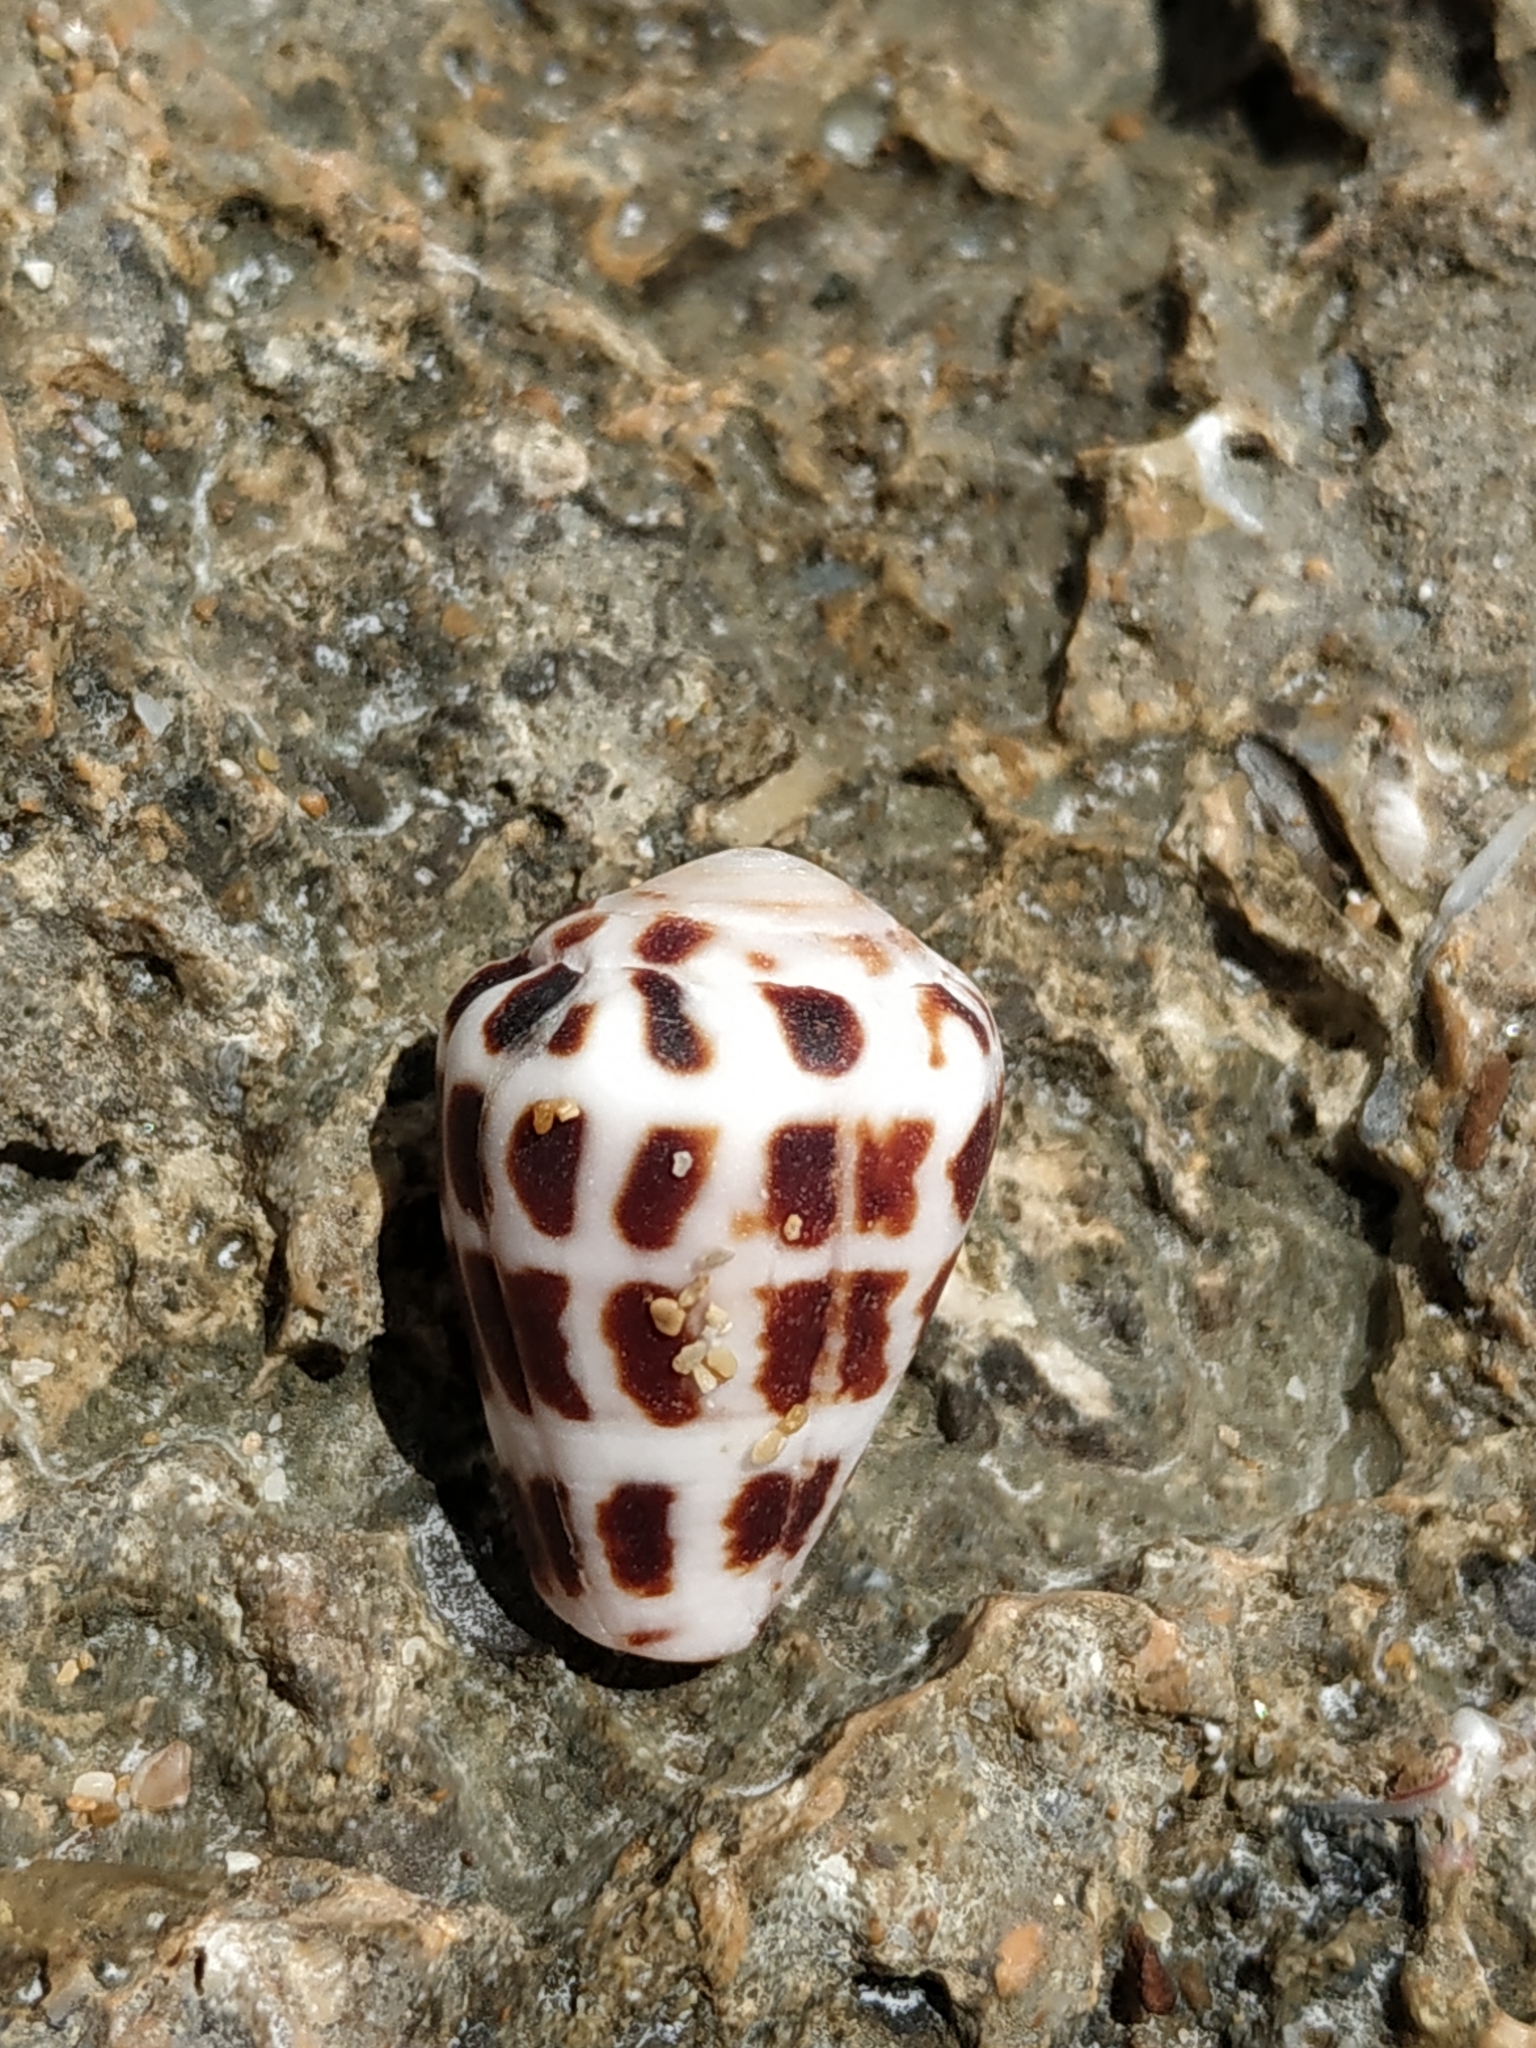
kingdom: Animalia
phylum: Mollusca
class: Gastropoda
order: Neogastropoda
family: Conidae
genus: Conus
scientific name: Conus ebraeus
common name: Hebrew cone
